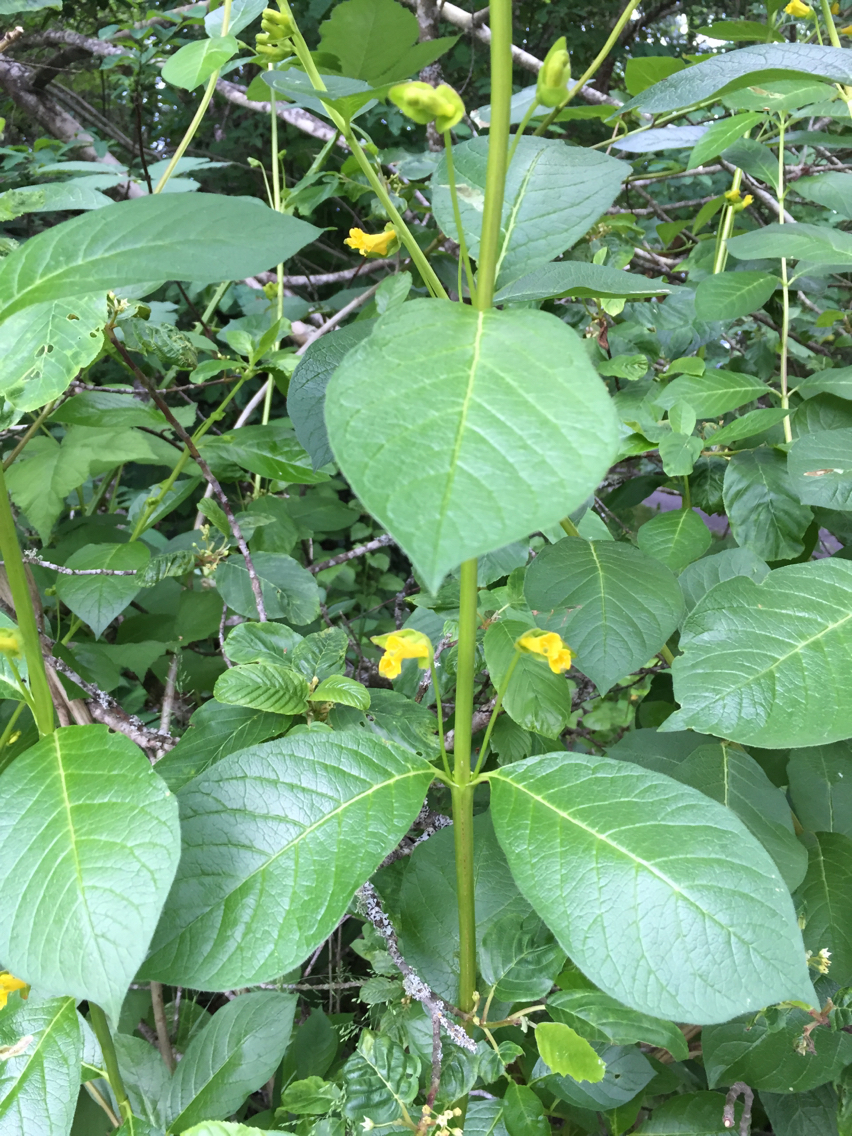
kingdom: Plantae
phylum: Tracheophyta
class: Magnoliopsida
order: Dipsacales
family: Caprifoliaceae
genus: Lonicera
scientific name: Lonicera involucrata
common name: Californian honeysuckle
